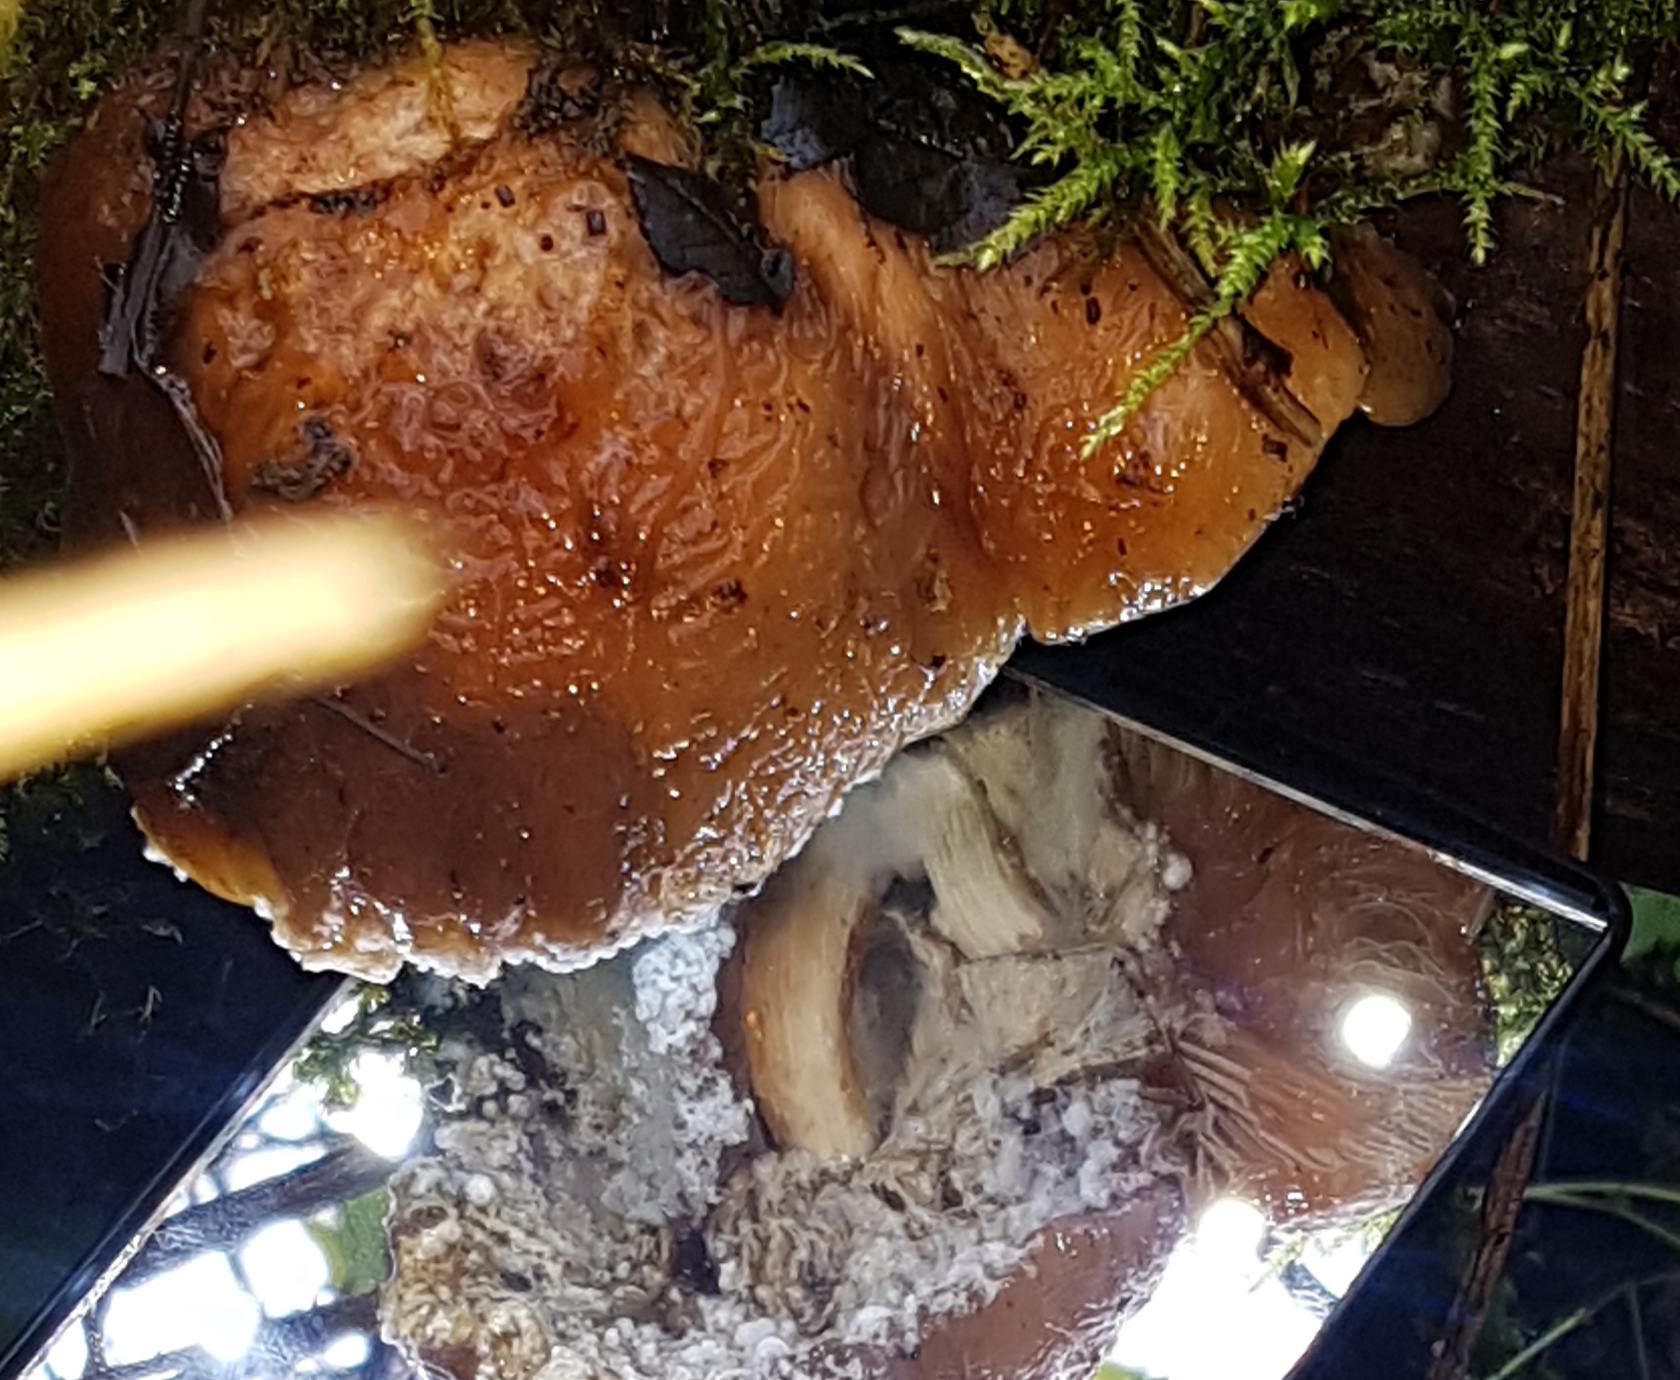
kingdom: Fungi
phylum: Basidiomycota
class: Agaricomycetes
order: Agaricales
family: Physalacriaceae
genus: Rhodotus
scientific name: Rhodotus palmatus
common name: Wrinkled peach
